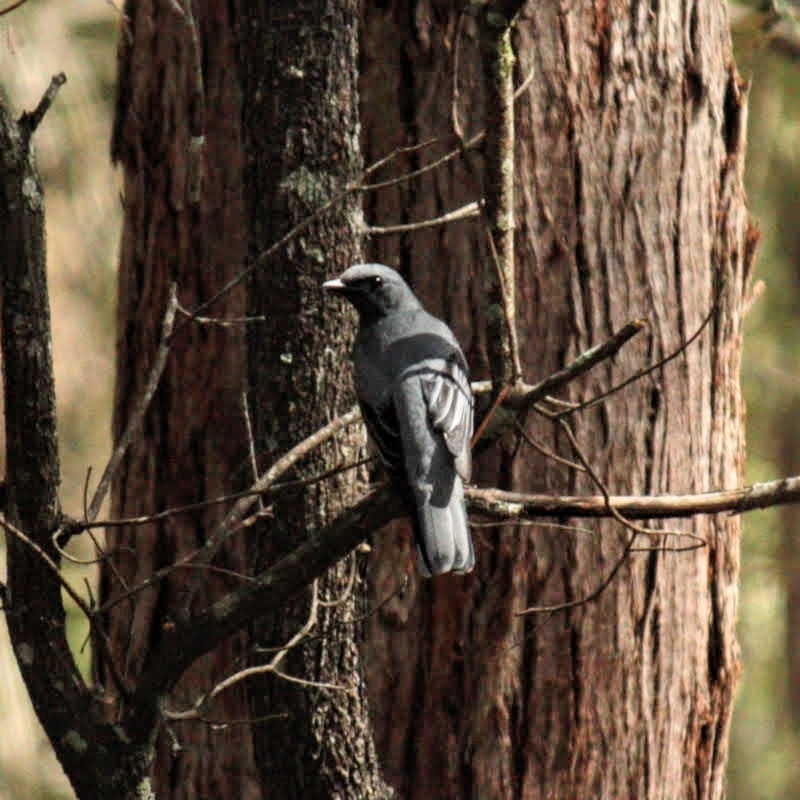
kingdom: Animalia
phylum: Chordata
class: Aves
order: Passeriformes
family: Campephagidae
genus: Edolisoma
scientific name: Edolisoma tenuirostre
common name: Common cicadabird
